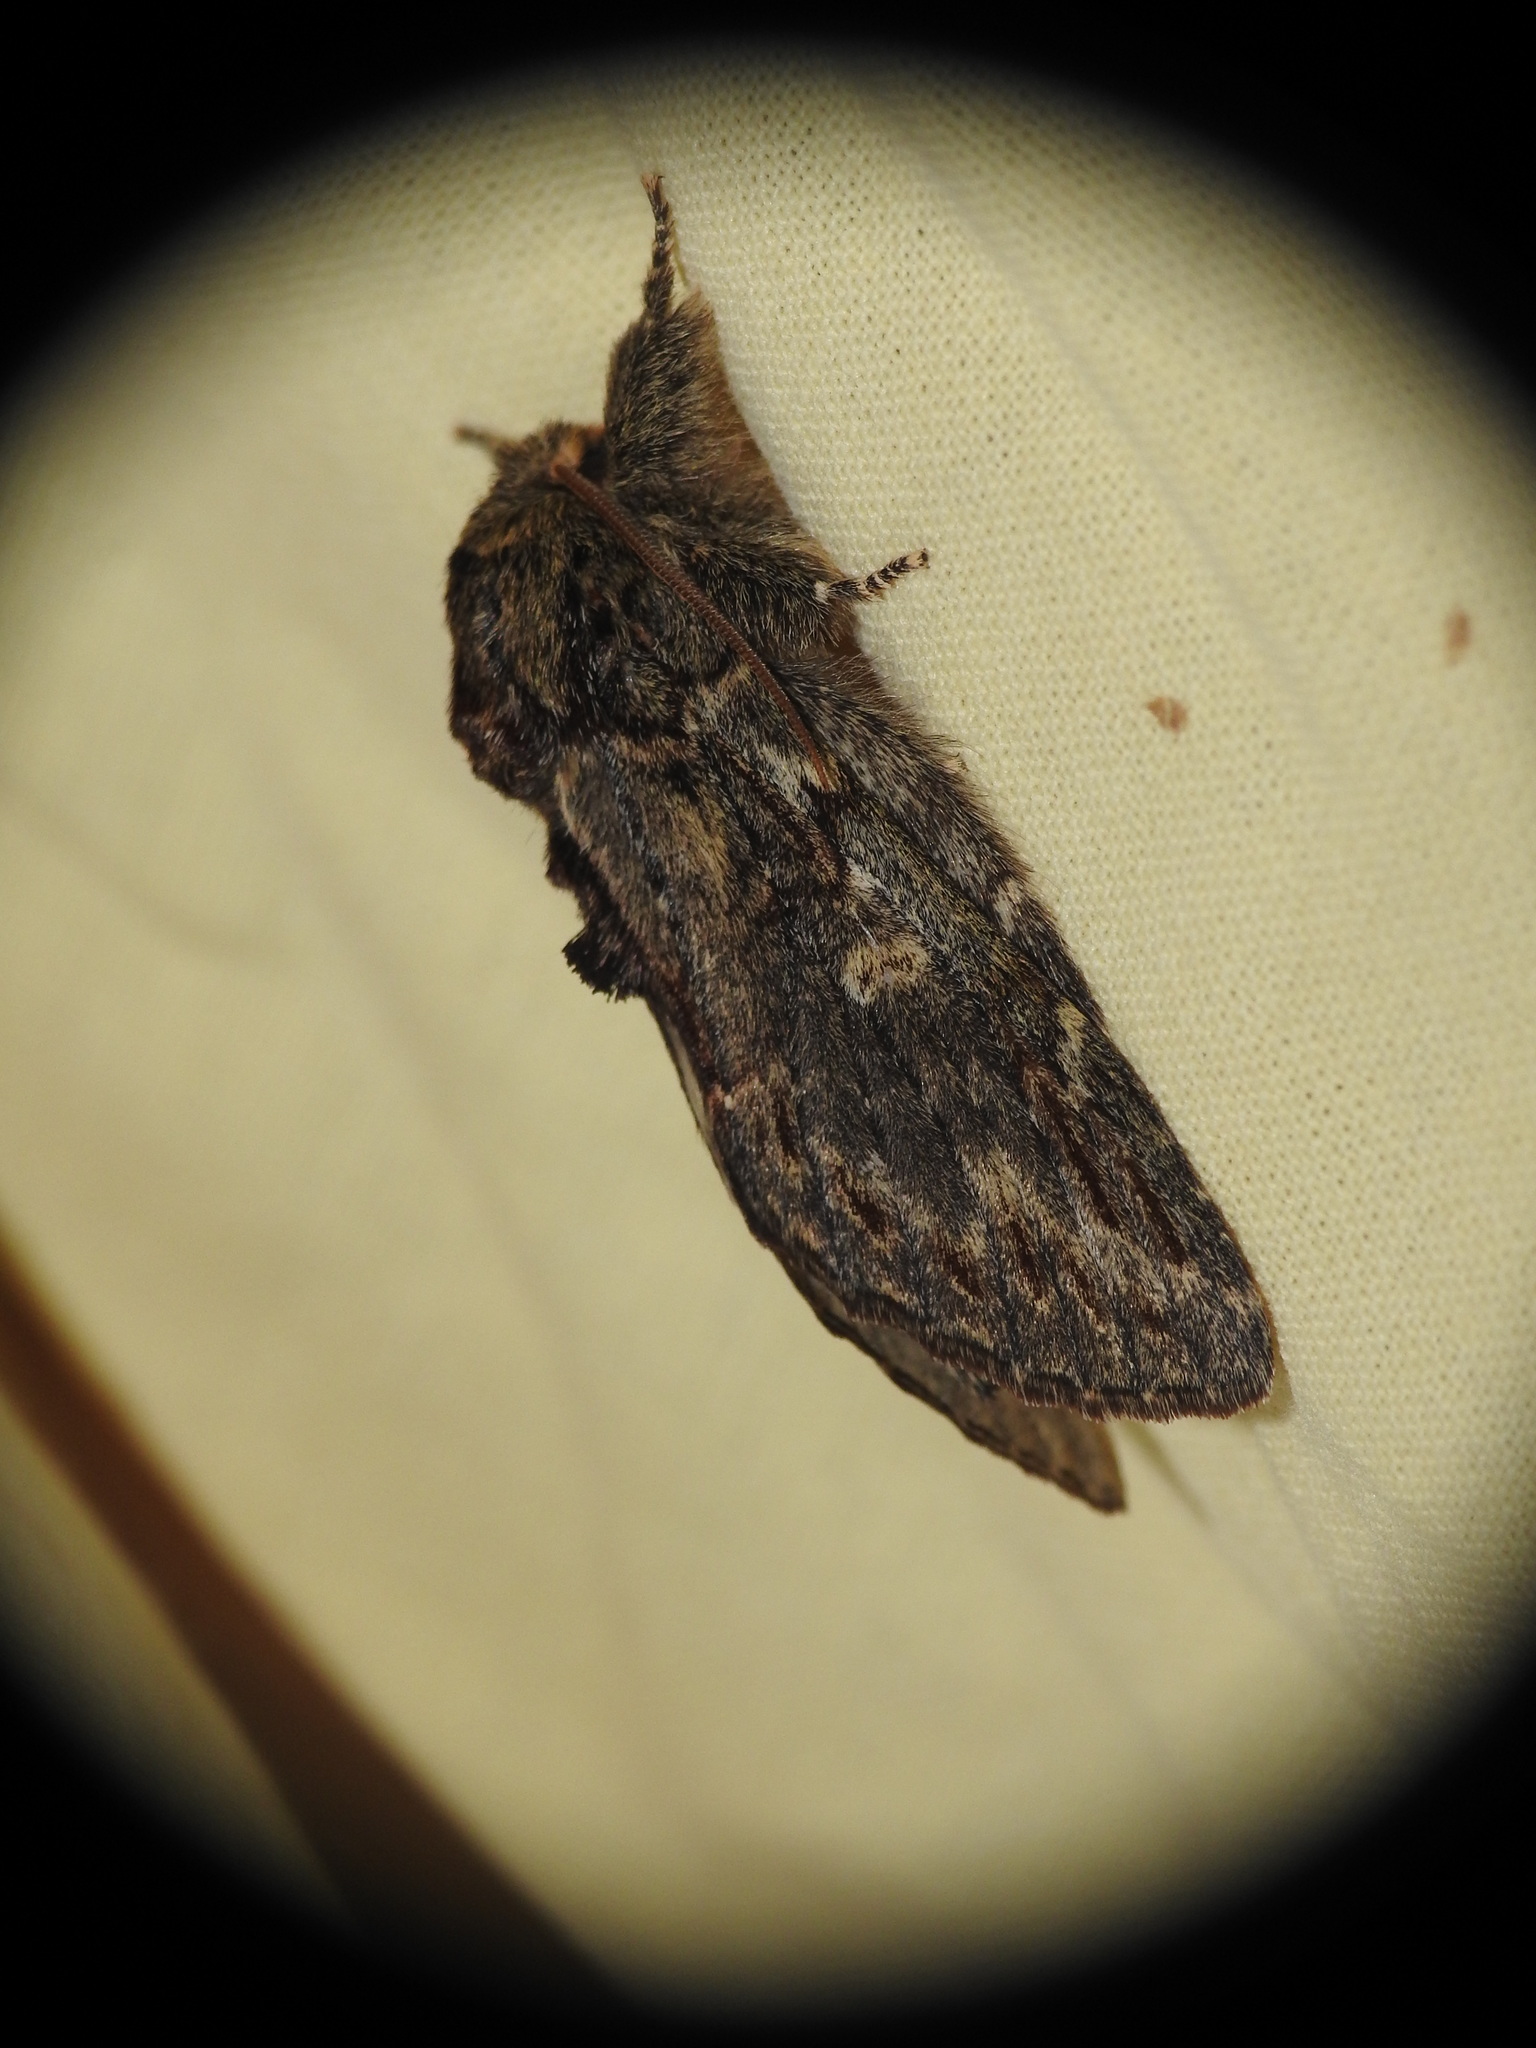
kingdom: Animalia
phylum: Arthropoda
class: Insecta
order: Lepidoptera
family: Notodontidae
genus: Peridea
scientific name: Peridea anceps
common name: Great prominent
